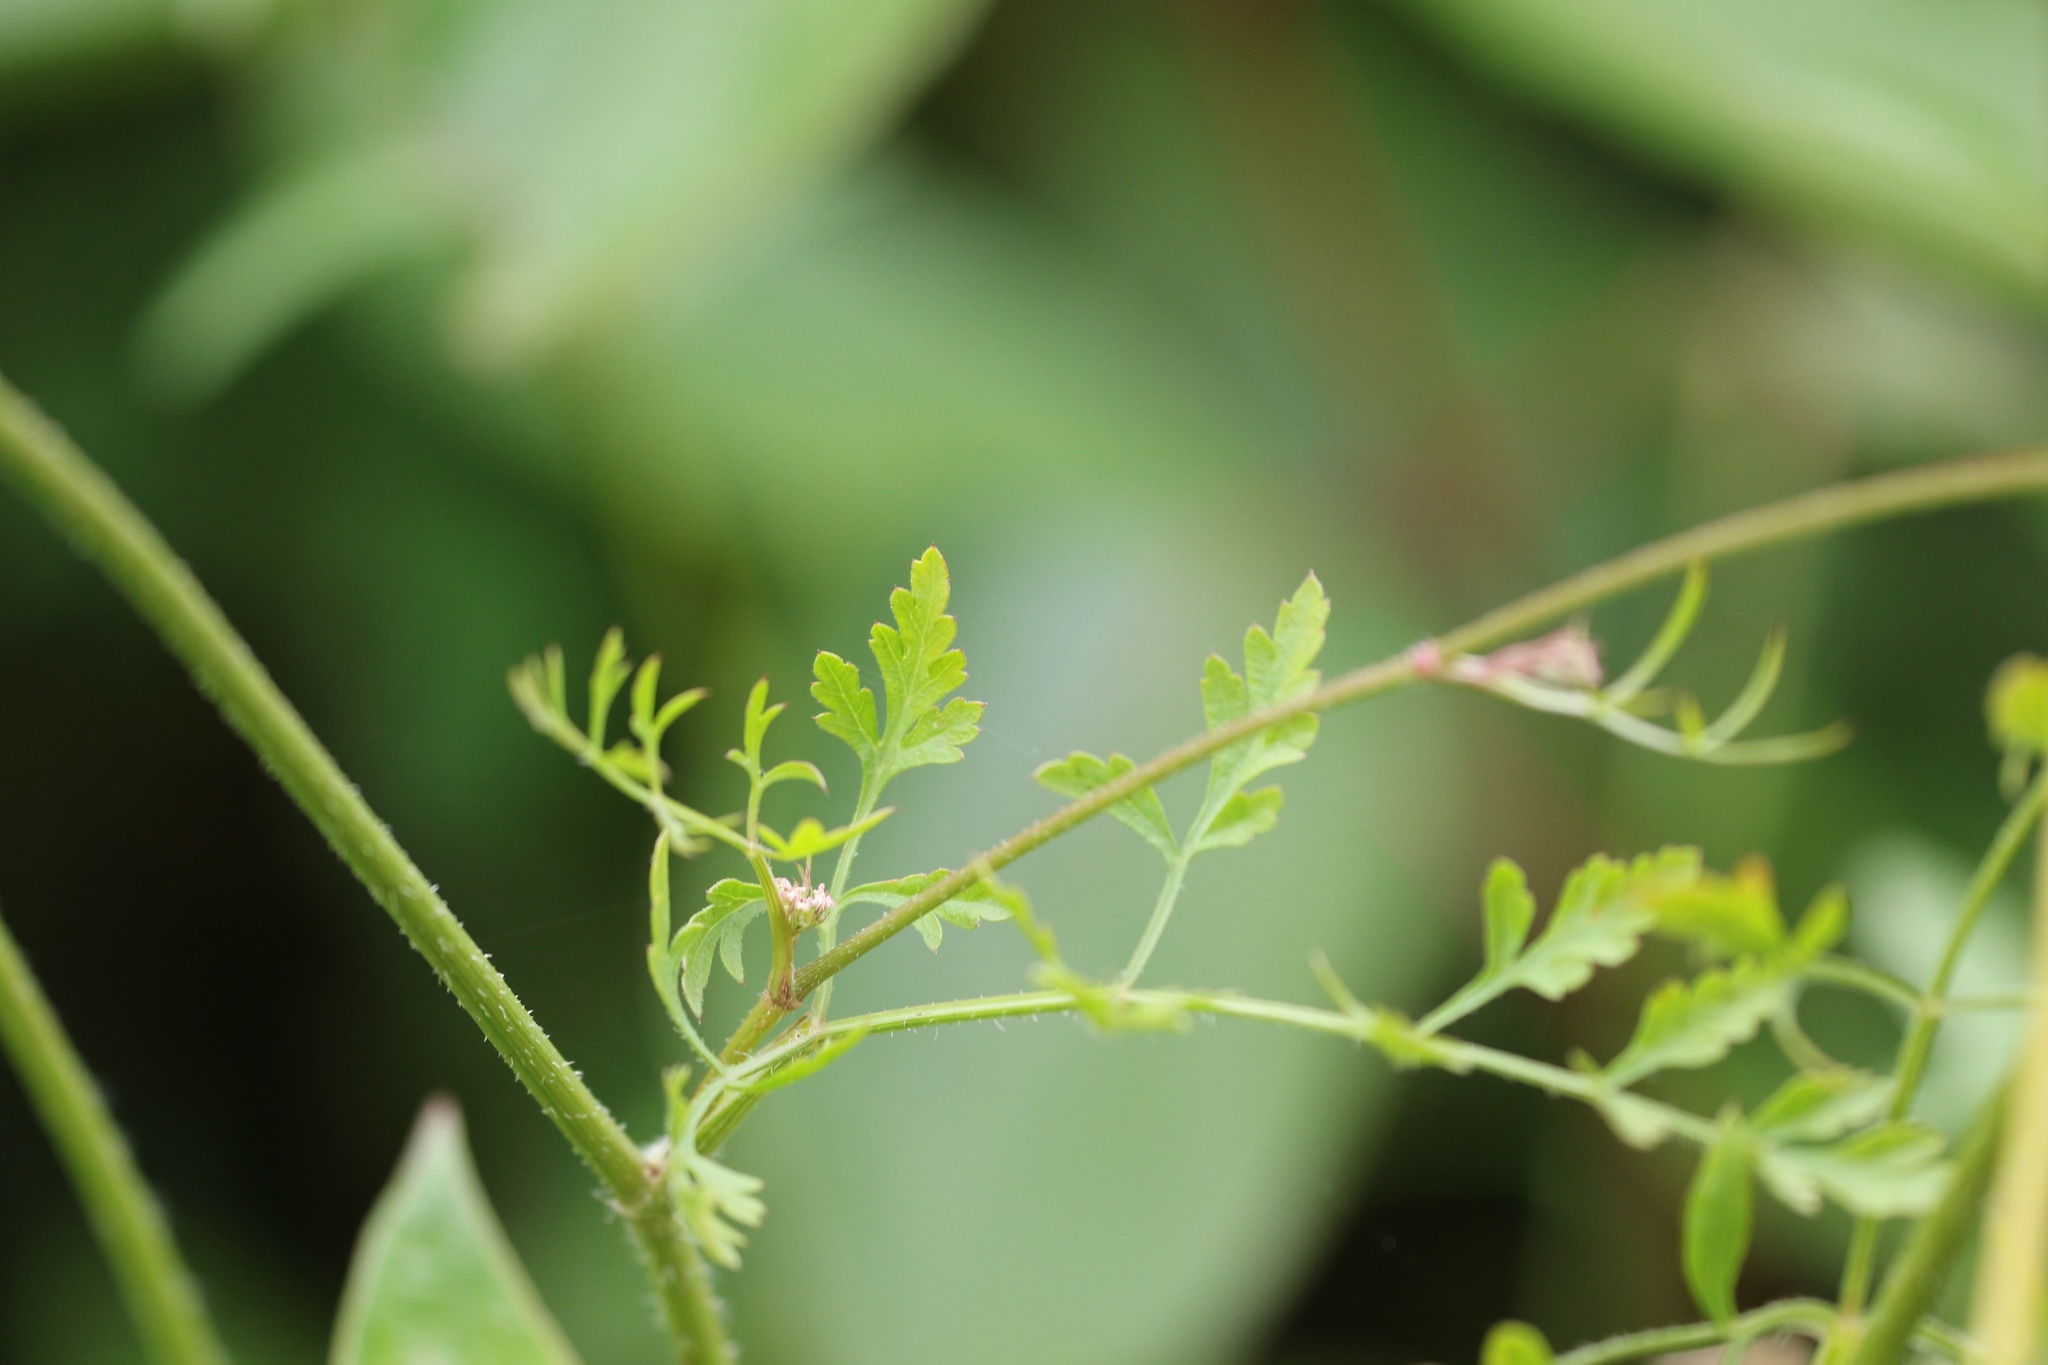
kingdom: Plantae
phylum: Tracheophyta
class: Magnoliopsida
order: Apiales
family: Apiaceae
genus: Daucus
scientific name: Daucus carota
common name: Wild carrot
